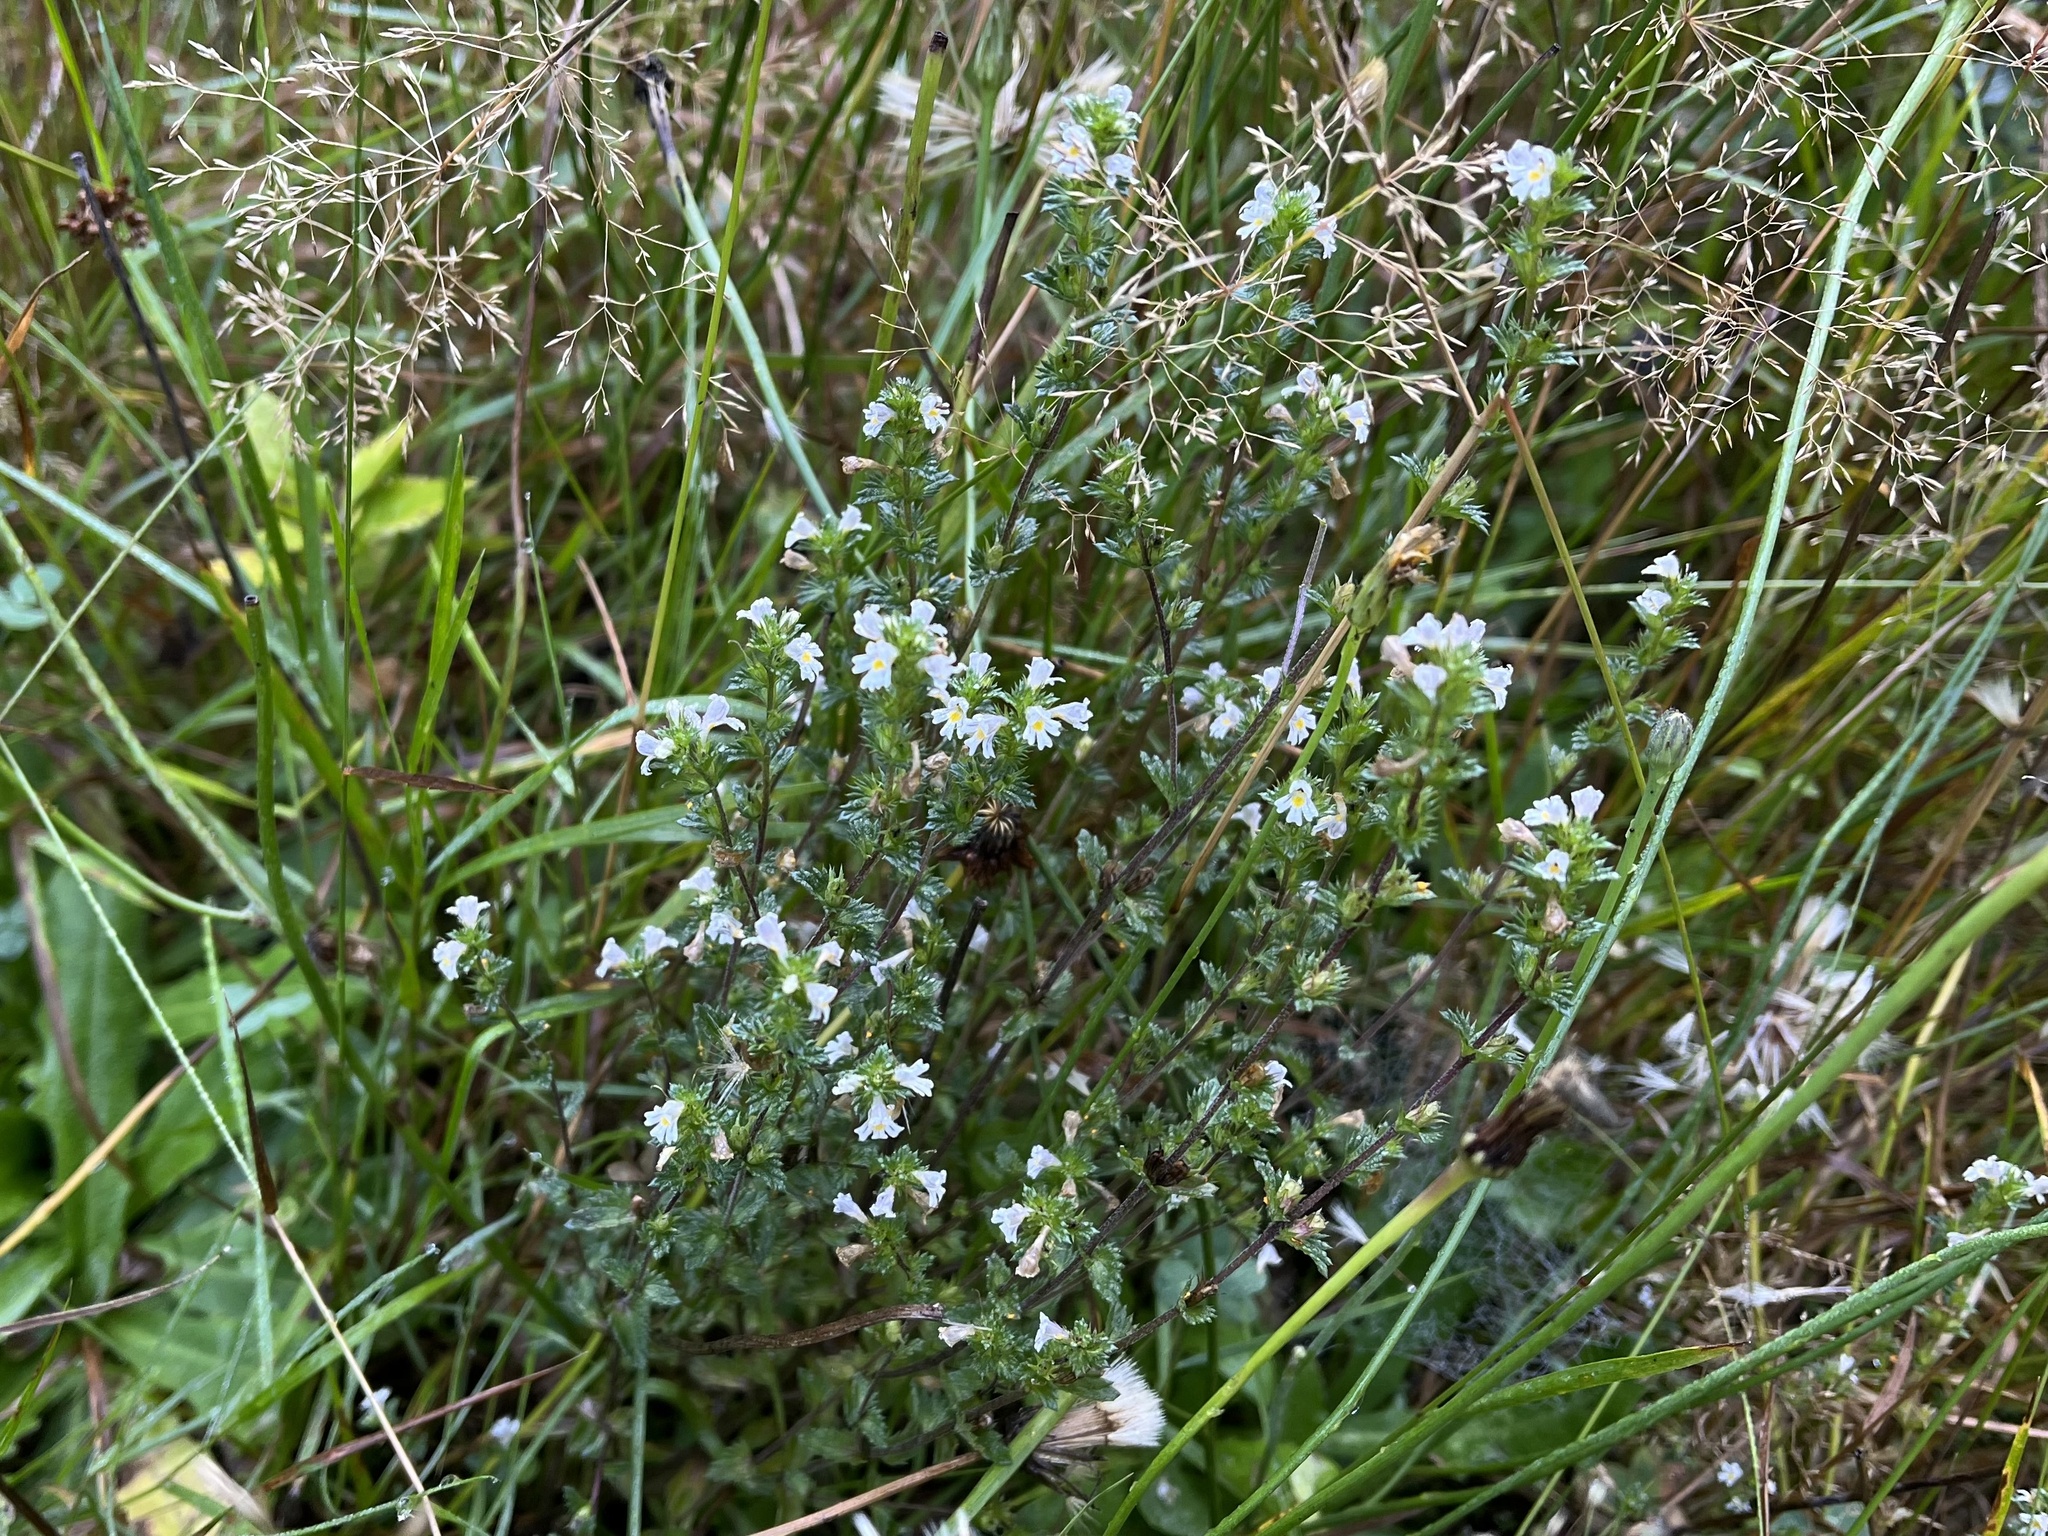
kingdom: Plantae
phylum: Tracheophyta
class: Magnoliopsida
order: Lamiales
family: Orobanchaceae
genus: Euphrasia
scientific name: Euphrasia stricta
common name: Drug eyebright
